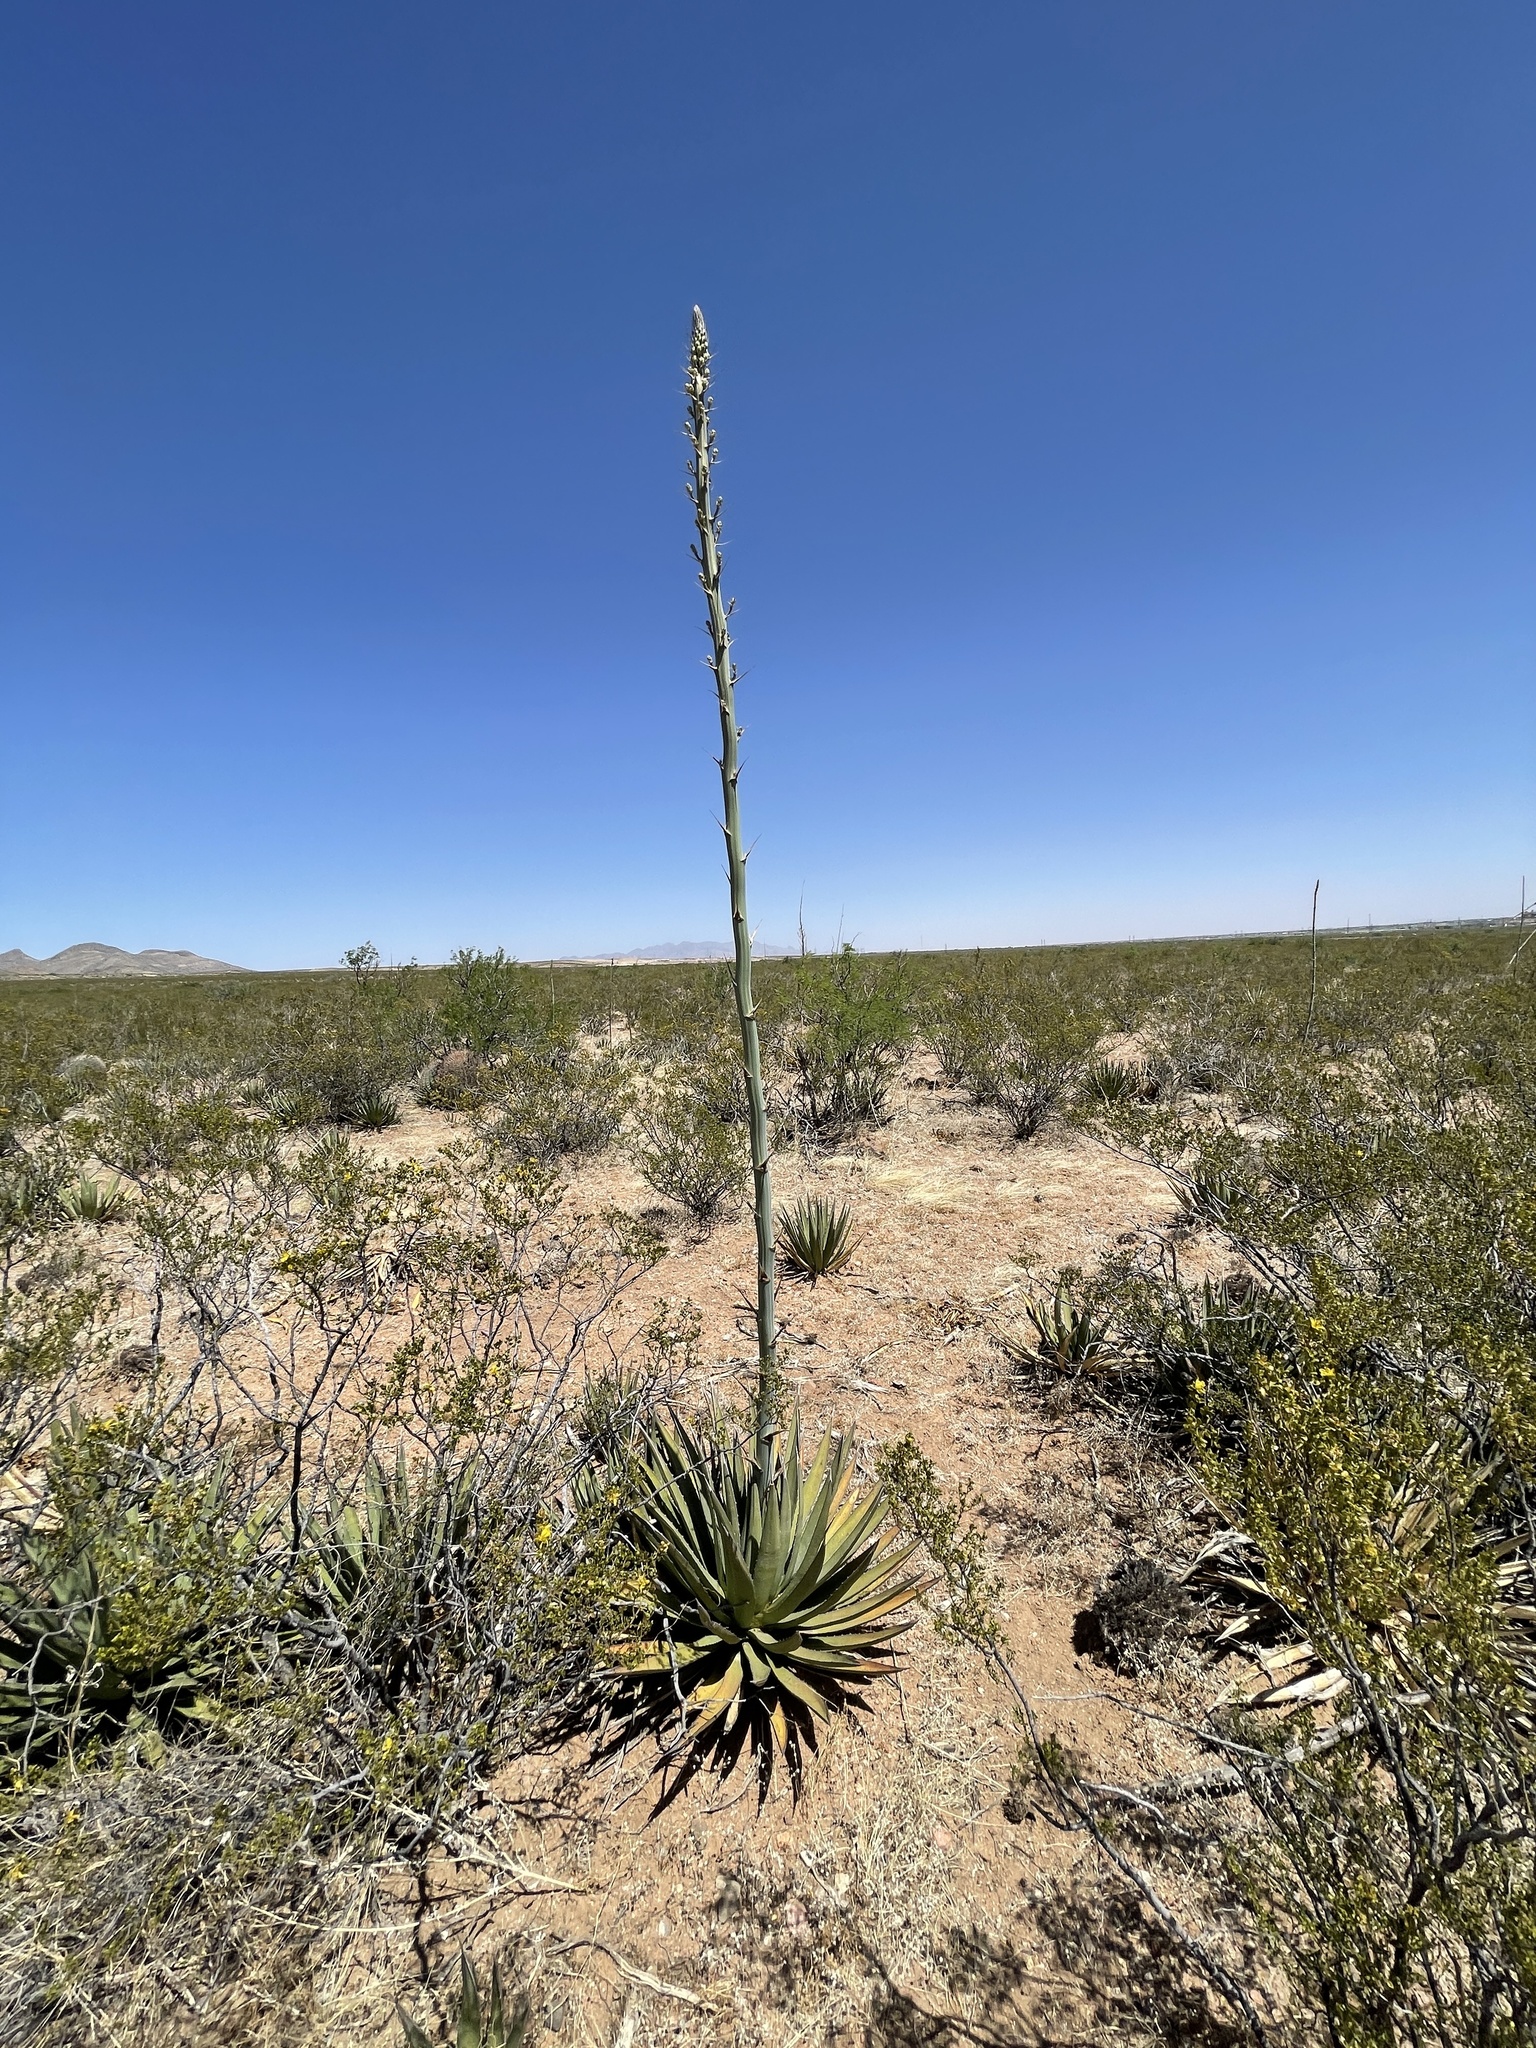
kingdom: Plantae
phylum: Tracheophyta
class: Liliopsida
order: Asparagales
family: Asparagaceae
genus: Agave
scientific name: Agave lechuguilla
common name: Lecheguilla agave
